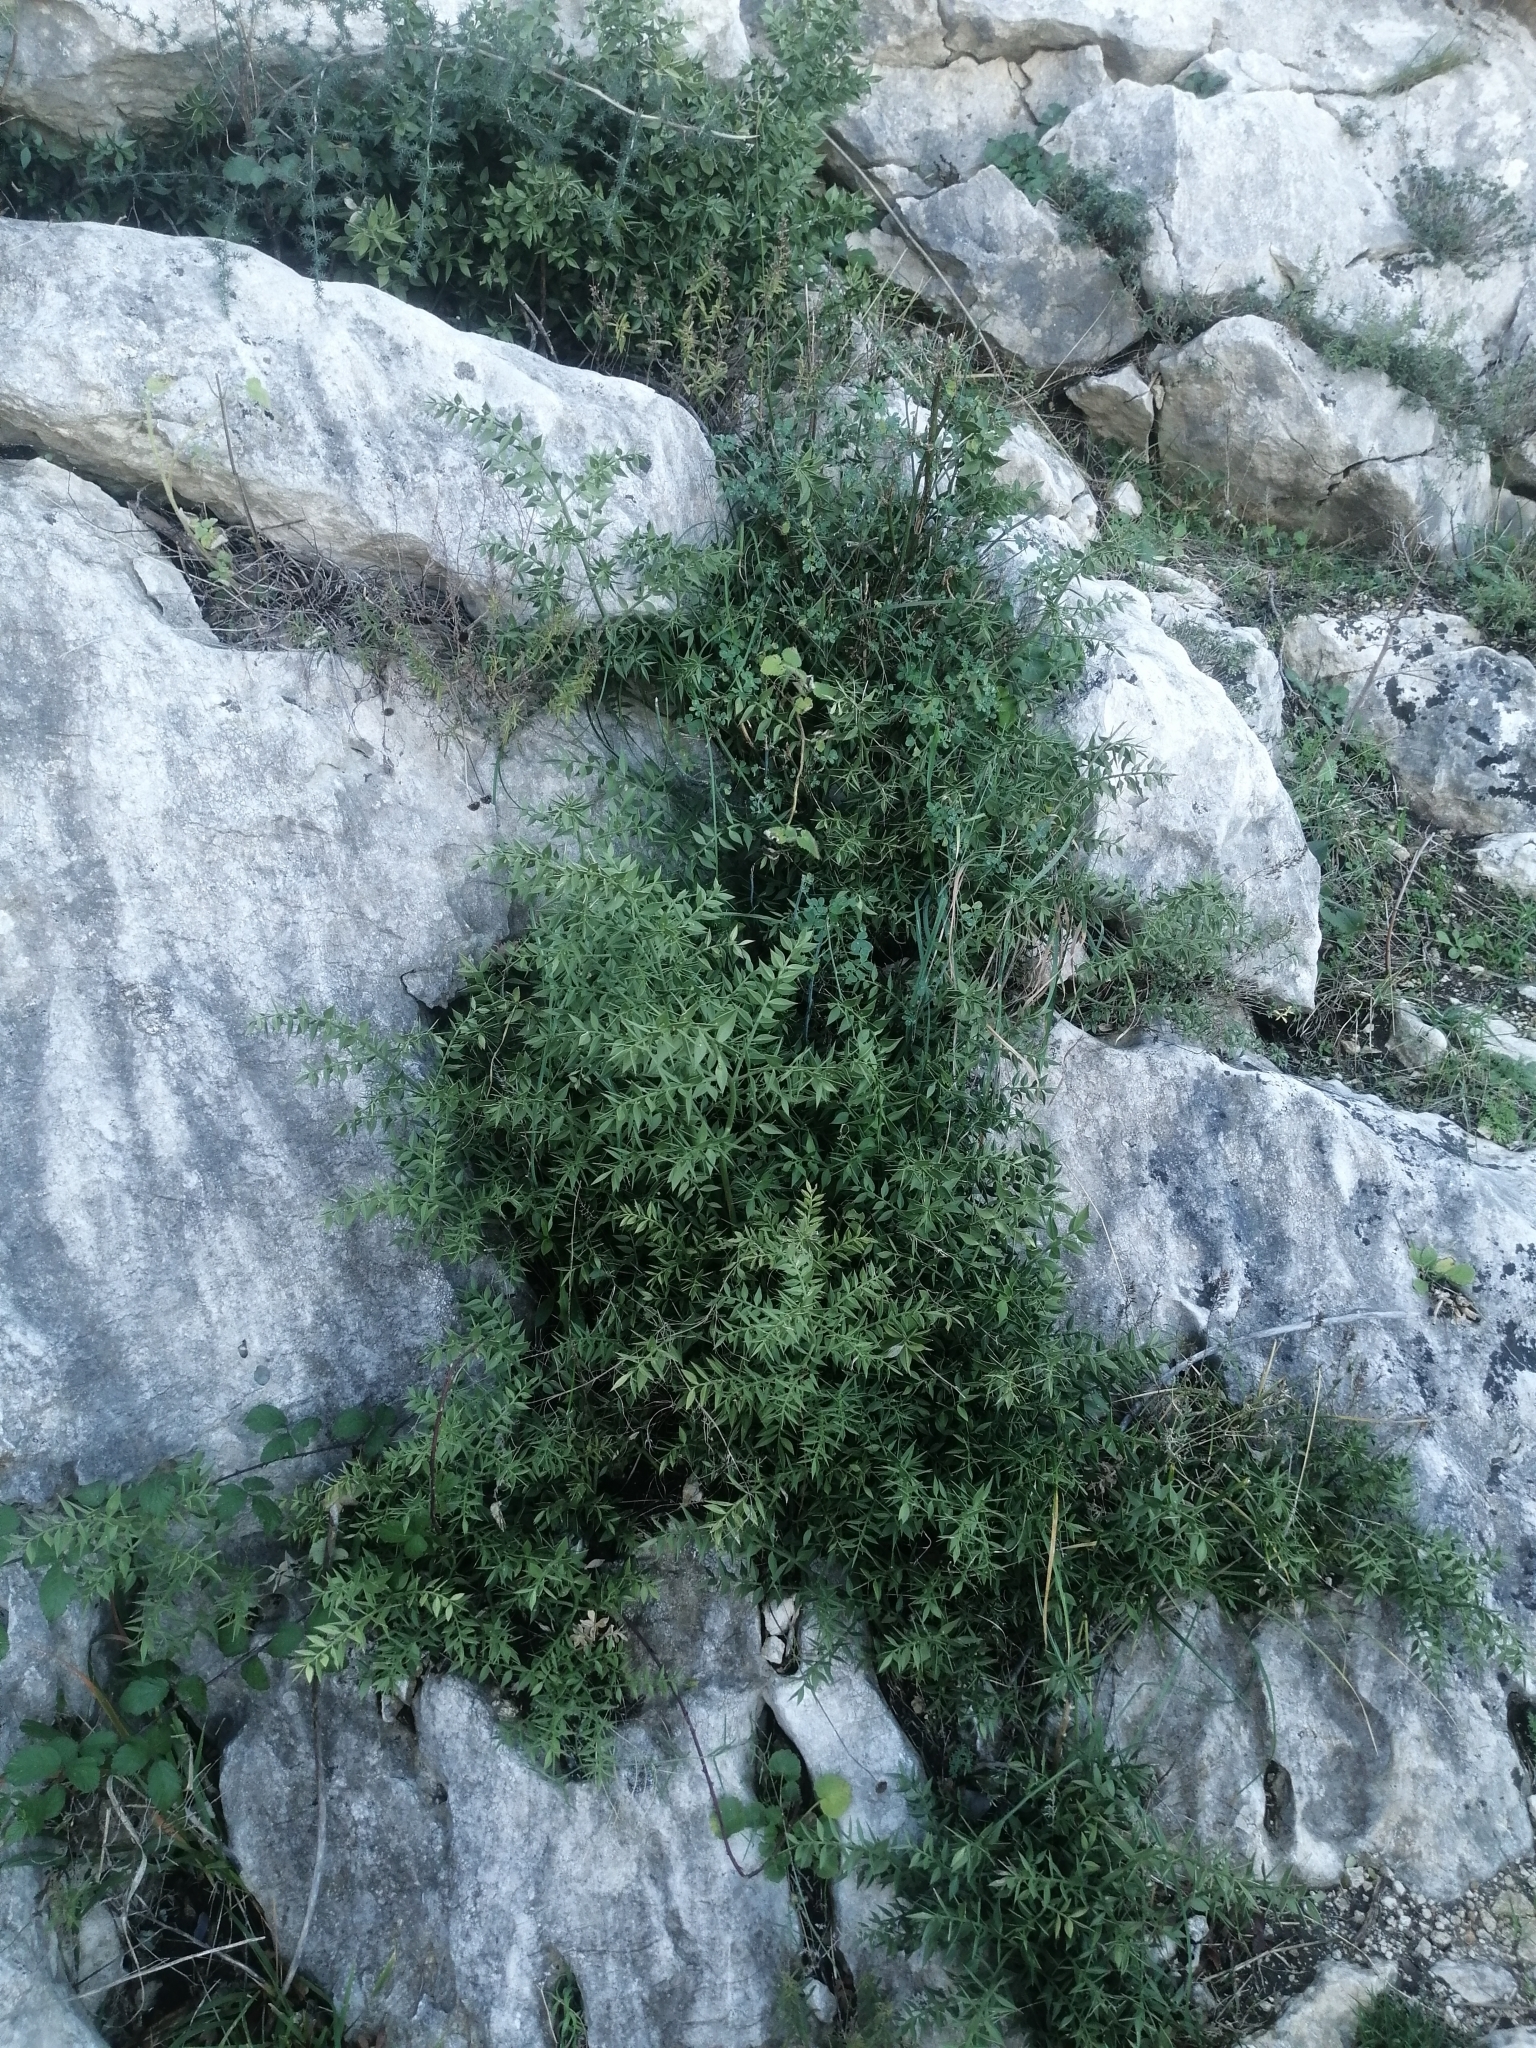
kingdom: Plantae
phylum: Tracheophyta
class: Liliopsida
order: Asparagales
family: Asparagaceae
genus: Ruscus
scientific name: Ruscus aculeatus
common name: Butcher's-broom
